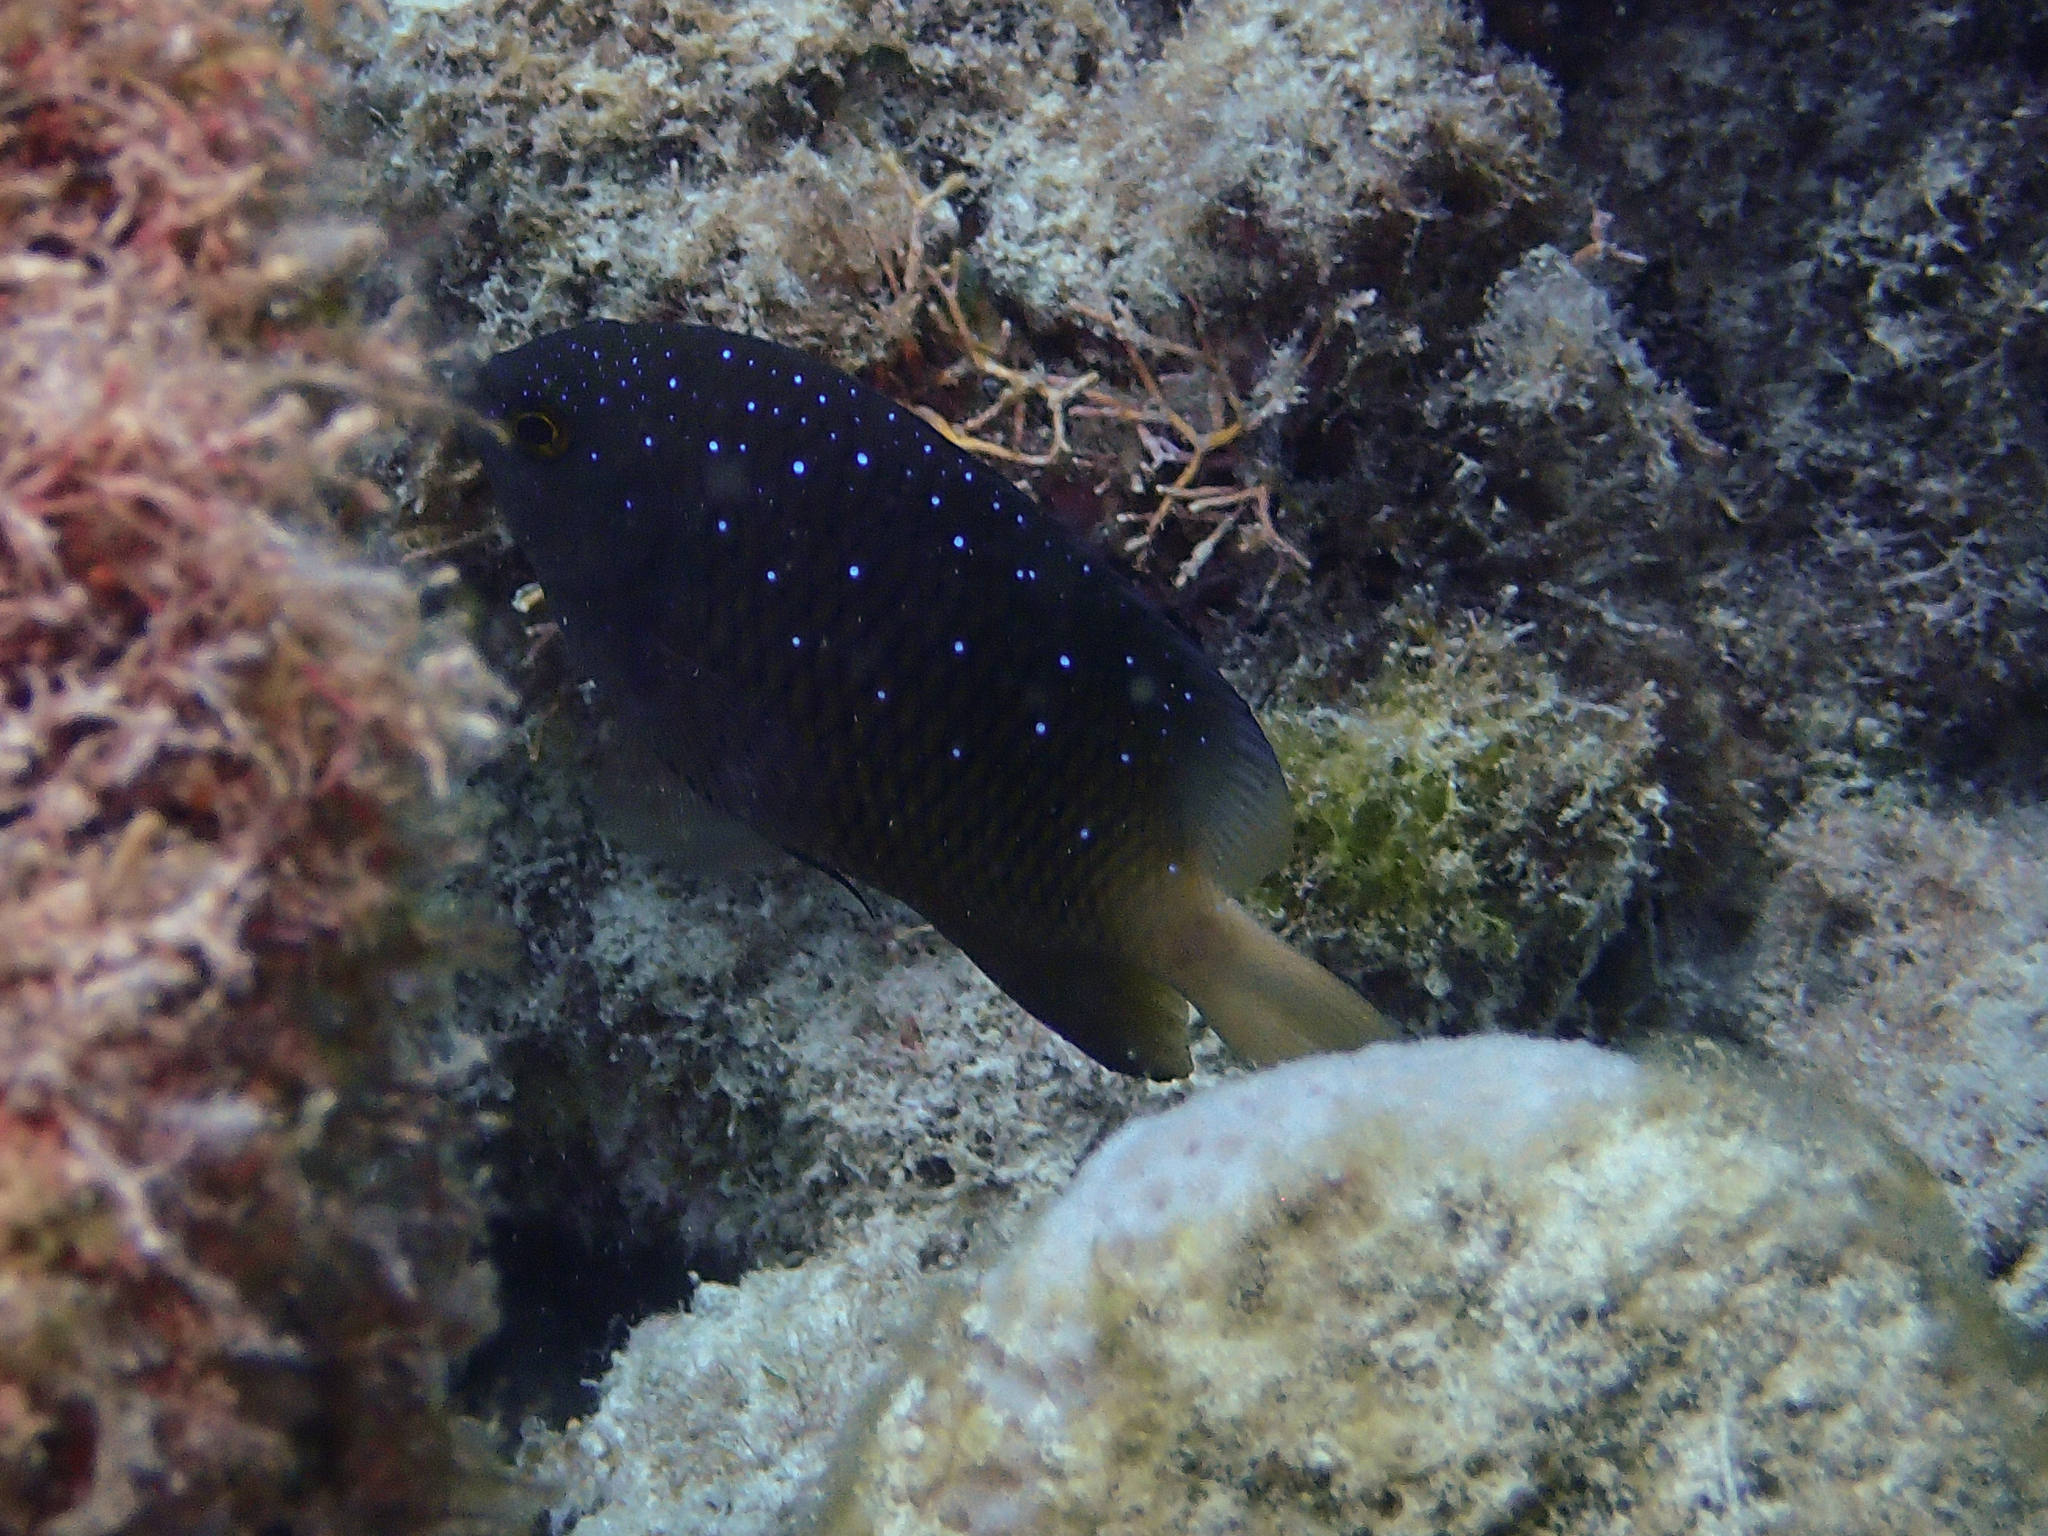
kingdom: Animalia
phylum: Chordata
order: Perciformes
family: Pomacentridae
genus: Plectroglyphidodon
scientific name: Plectroglyphidodon lacrymatus
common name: Jewel damsel
